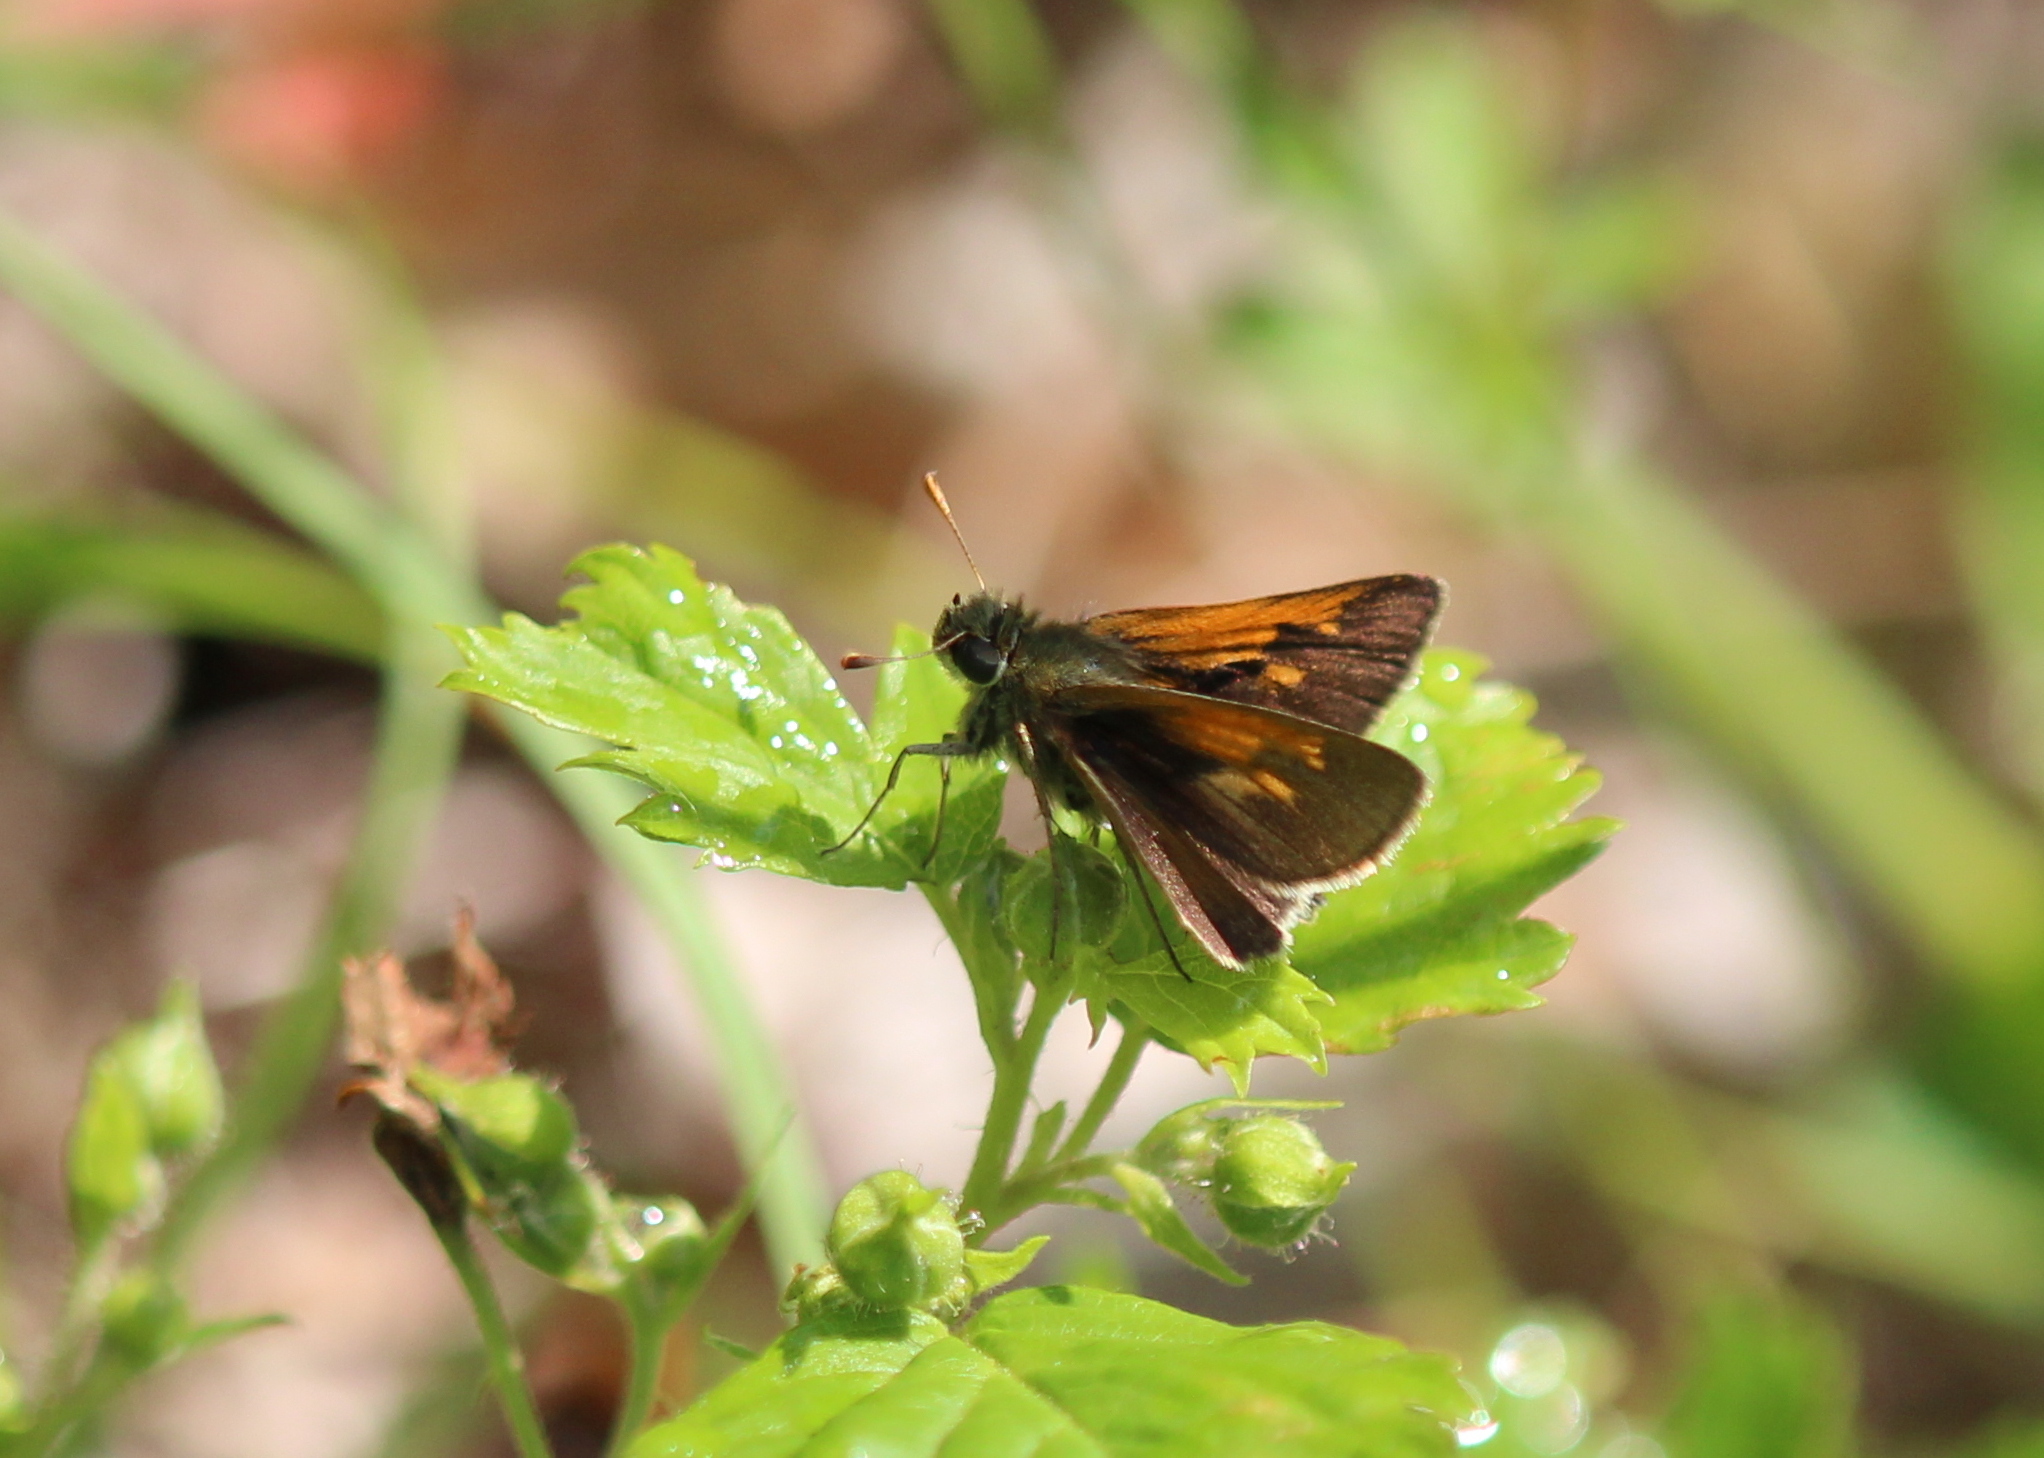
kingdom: Animalia
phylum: Arthropoda
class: Insecta
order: Lepidoptera
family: Hesperiidae
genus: Polites
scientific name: Polites themistocles
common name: Tawny-edged skipper
